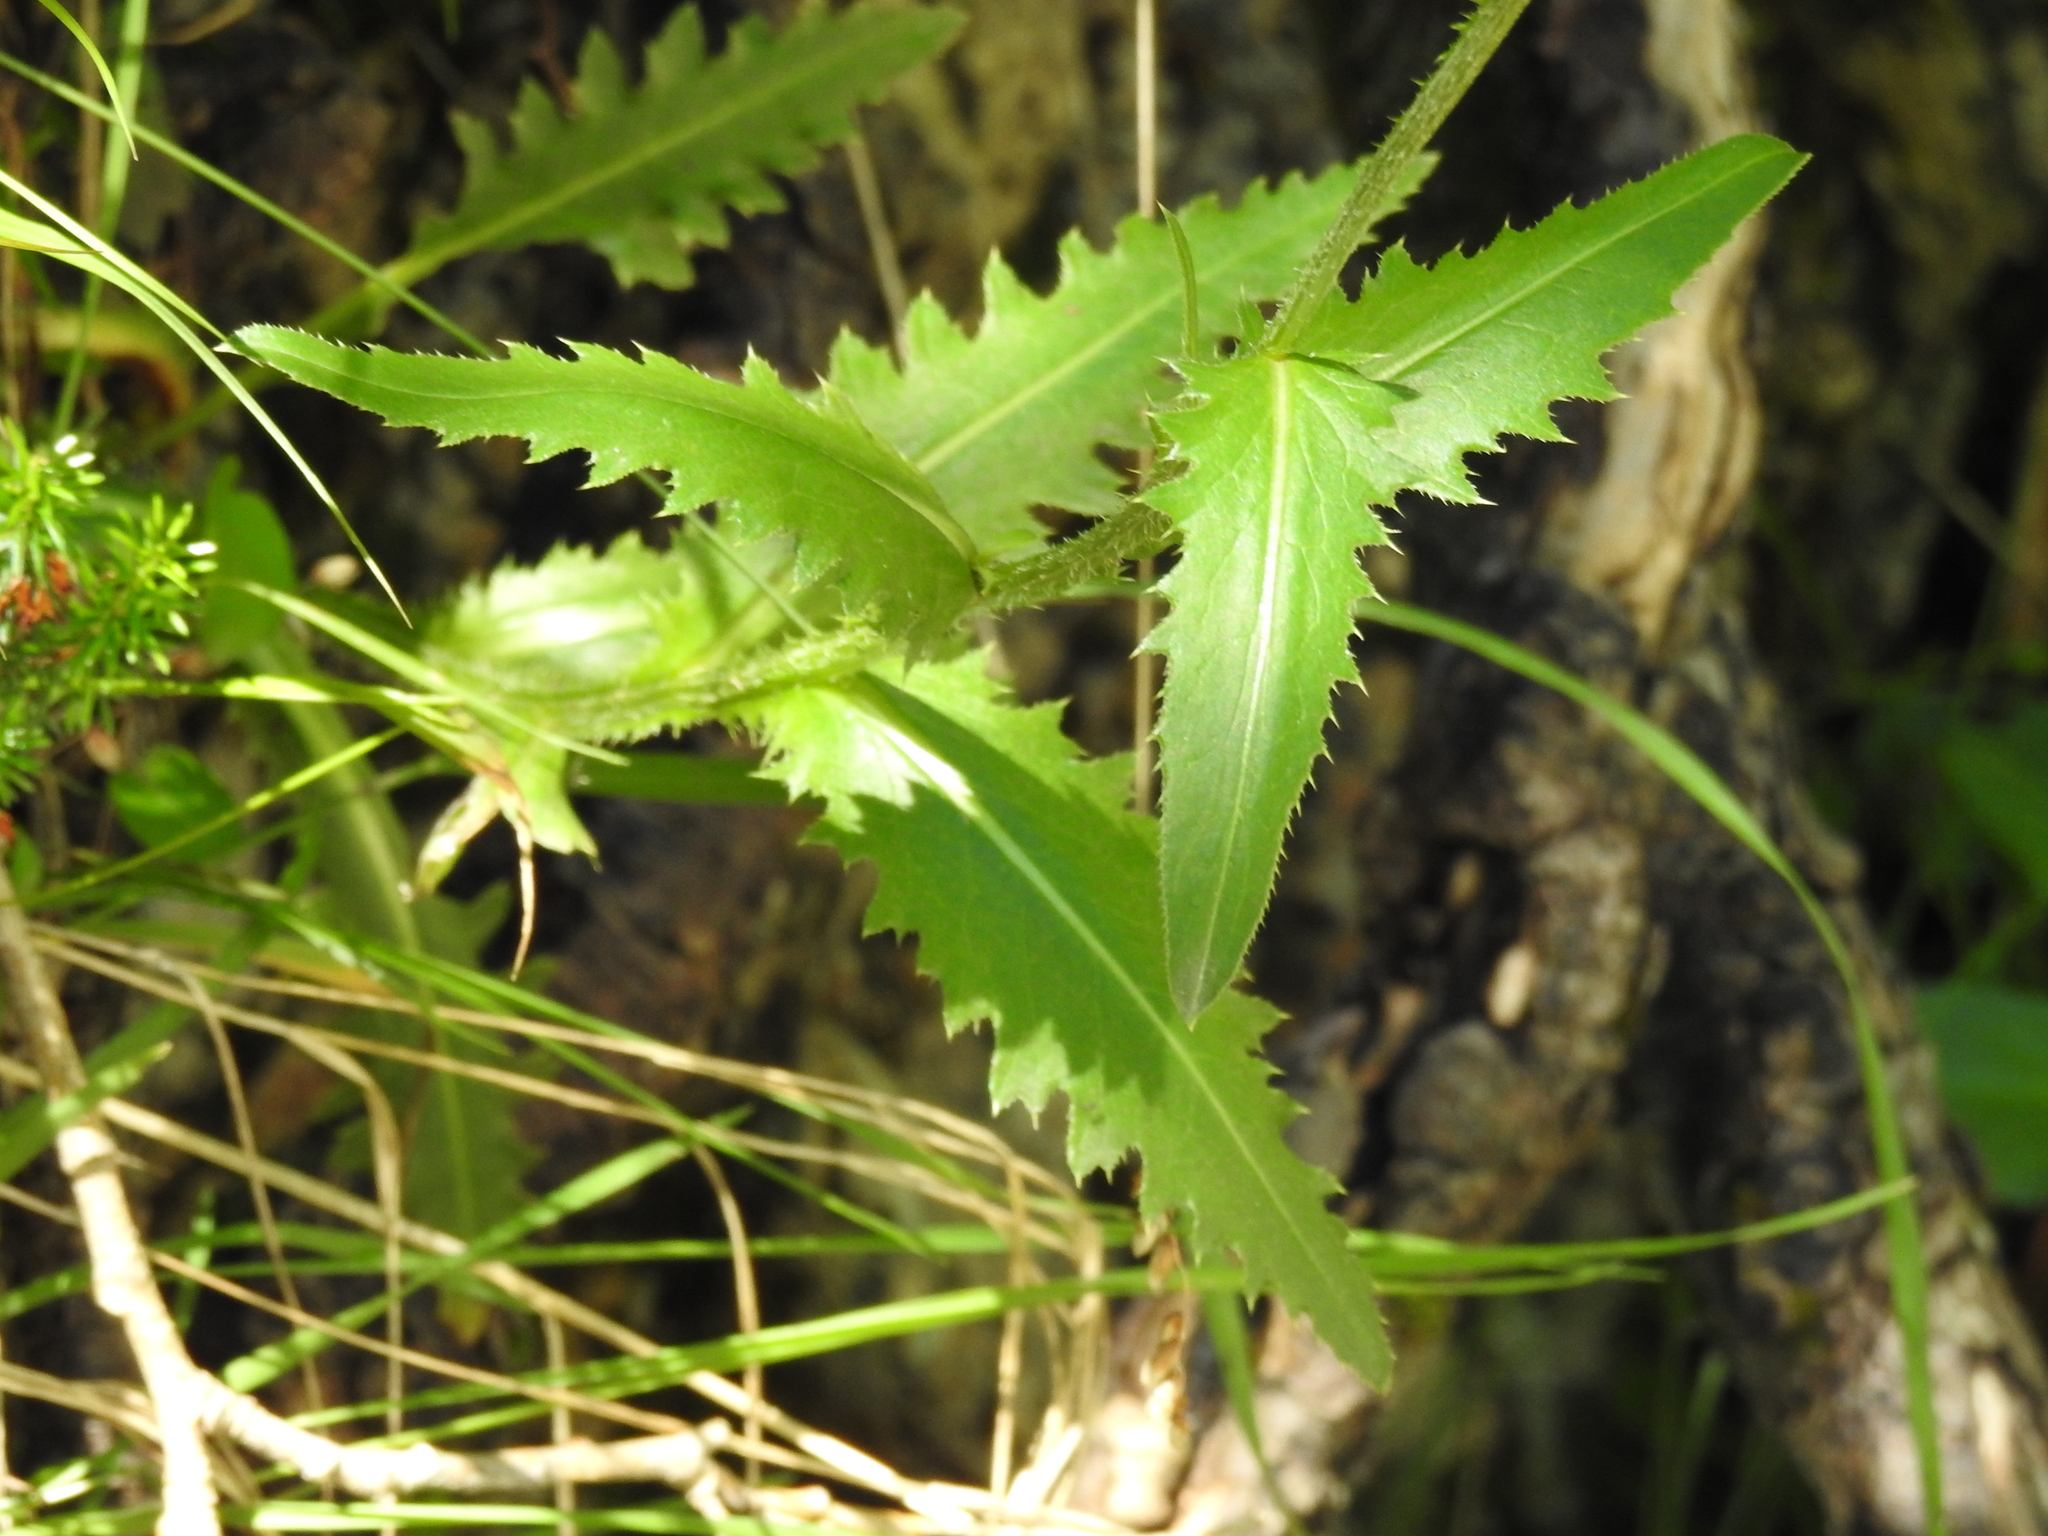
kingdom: Plantae
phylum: Tracheophyta
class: Magnoliopsida
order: Asterales
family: Asteraceae
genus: Carduus
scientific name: Carduus defloratus
